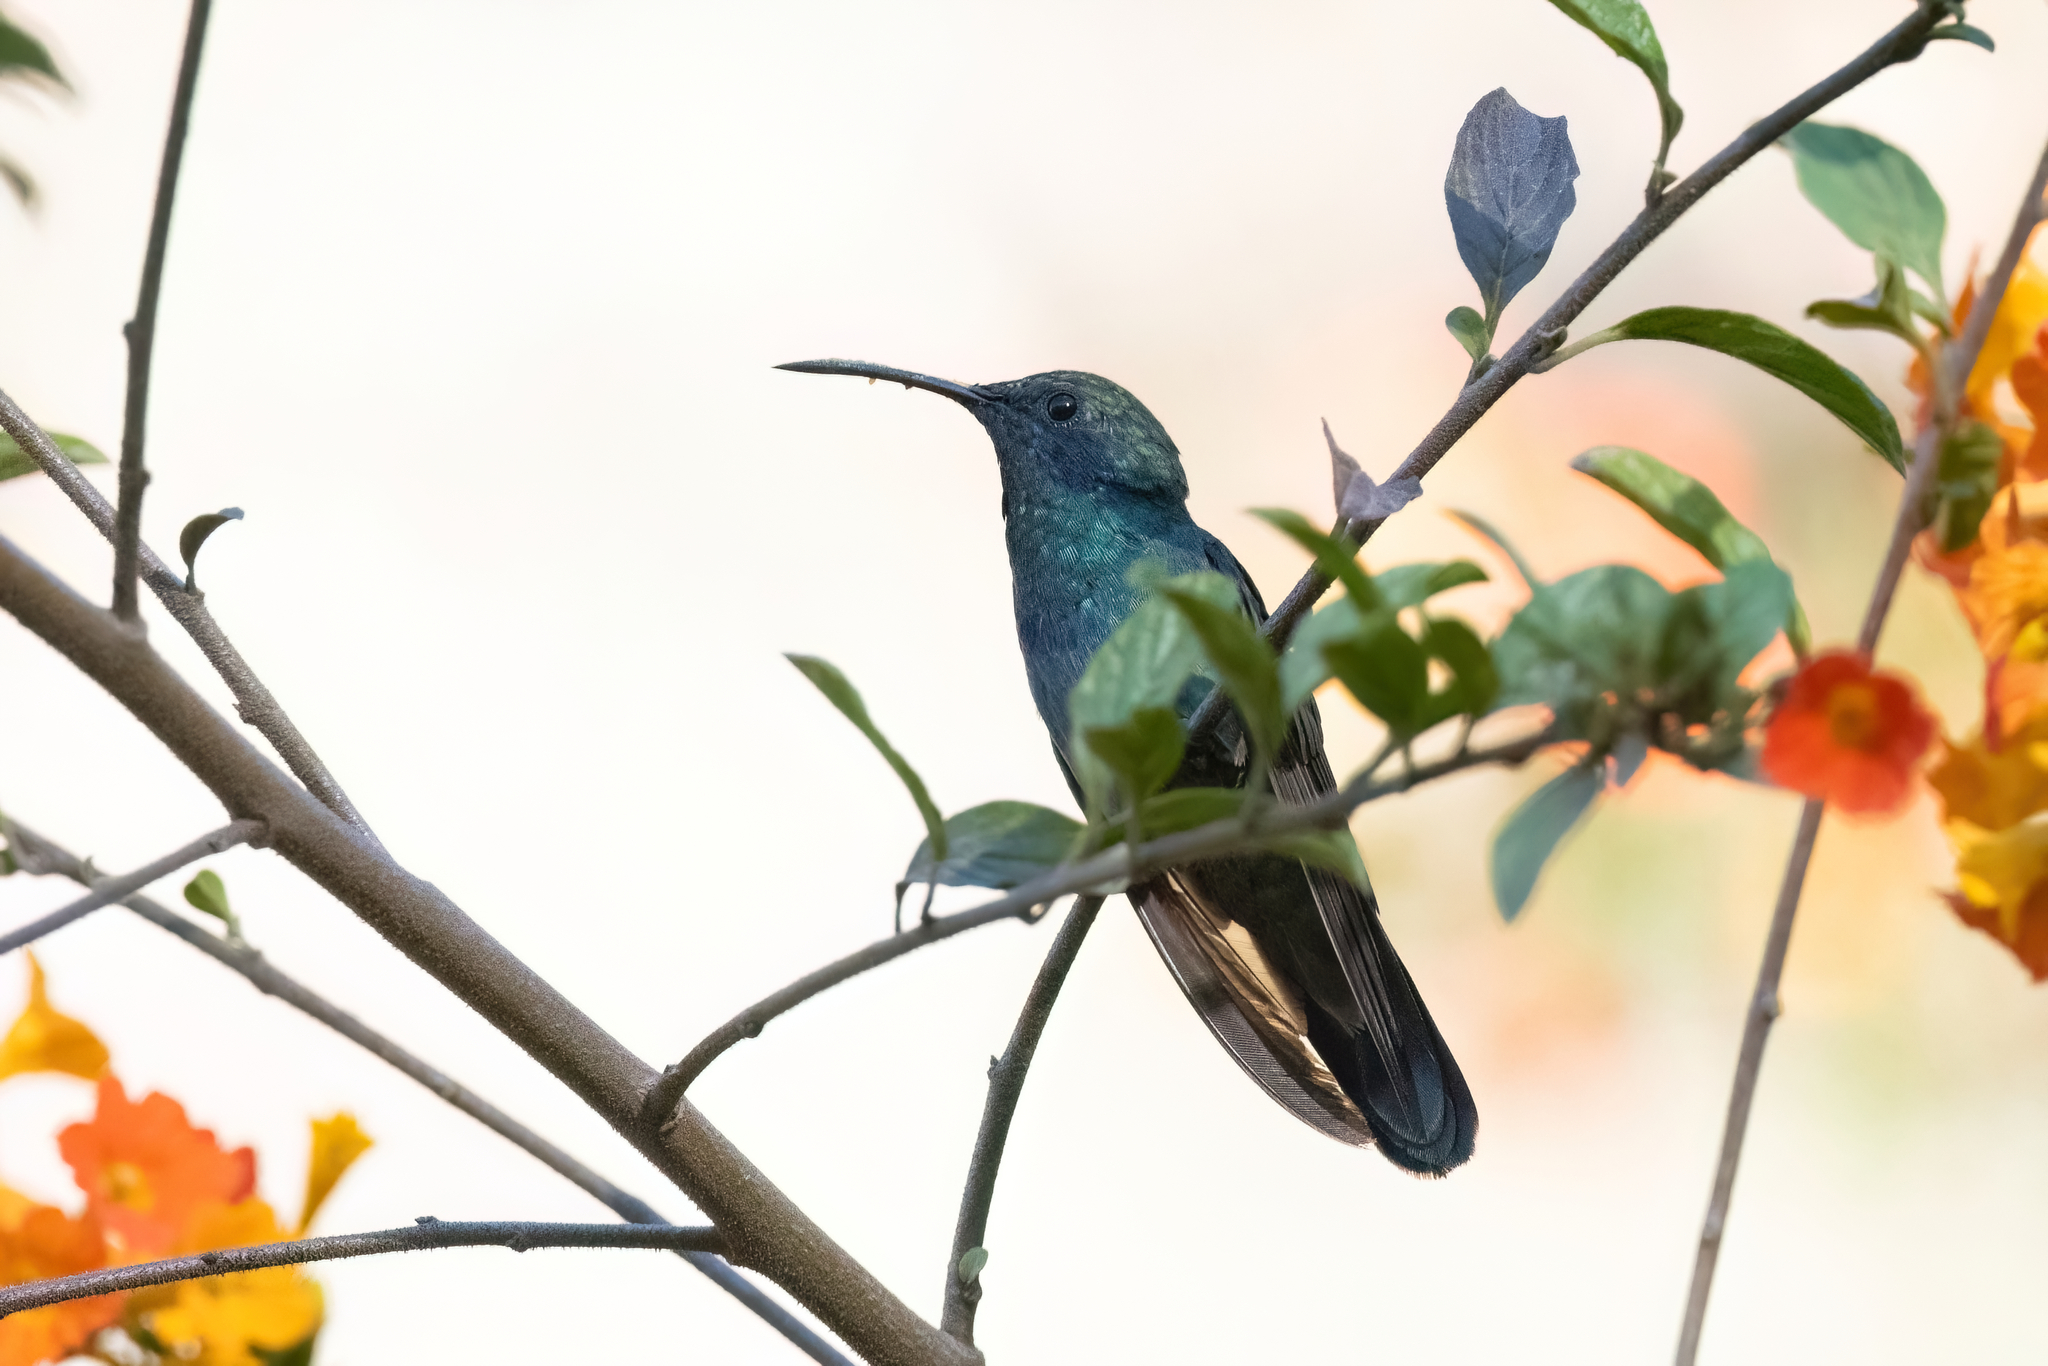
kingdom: Animalia
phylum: Chordata
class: Aves
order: Apodiformes
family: Trochilidae
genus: Colibri
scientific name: Colibri thalassinus
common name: Green violetear
